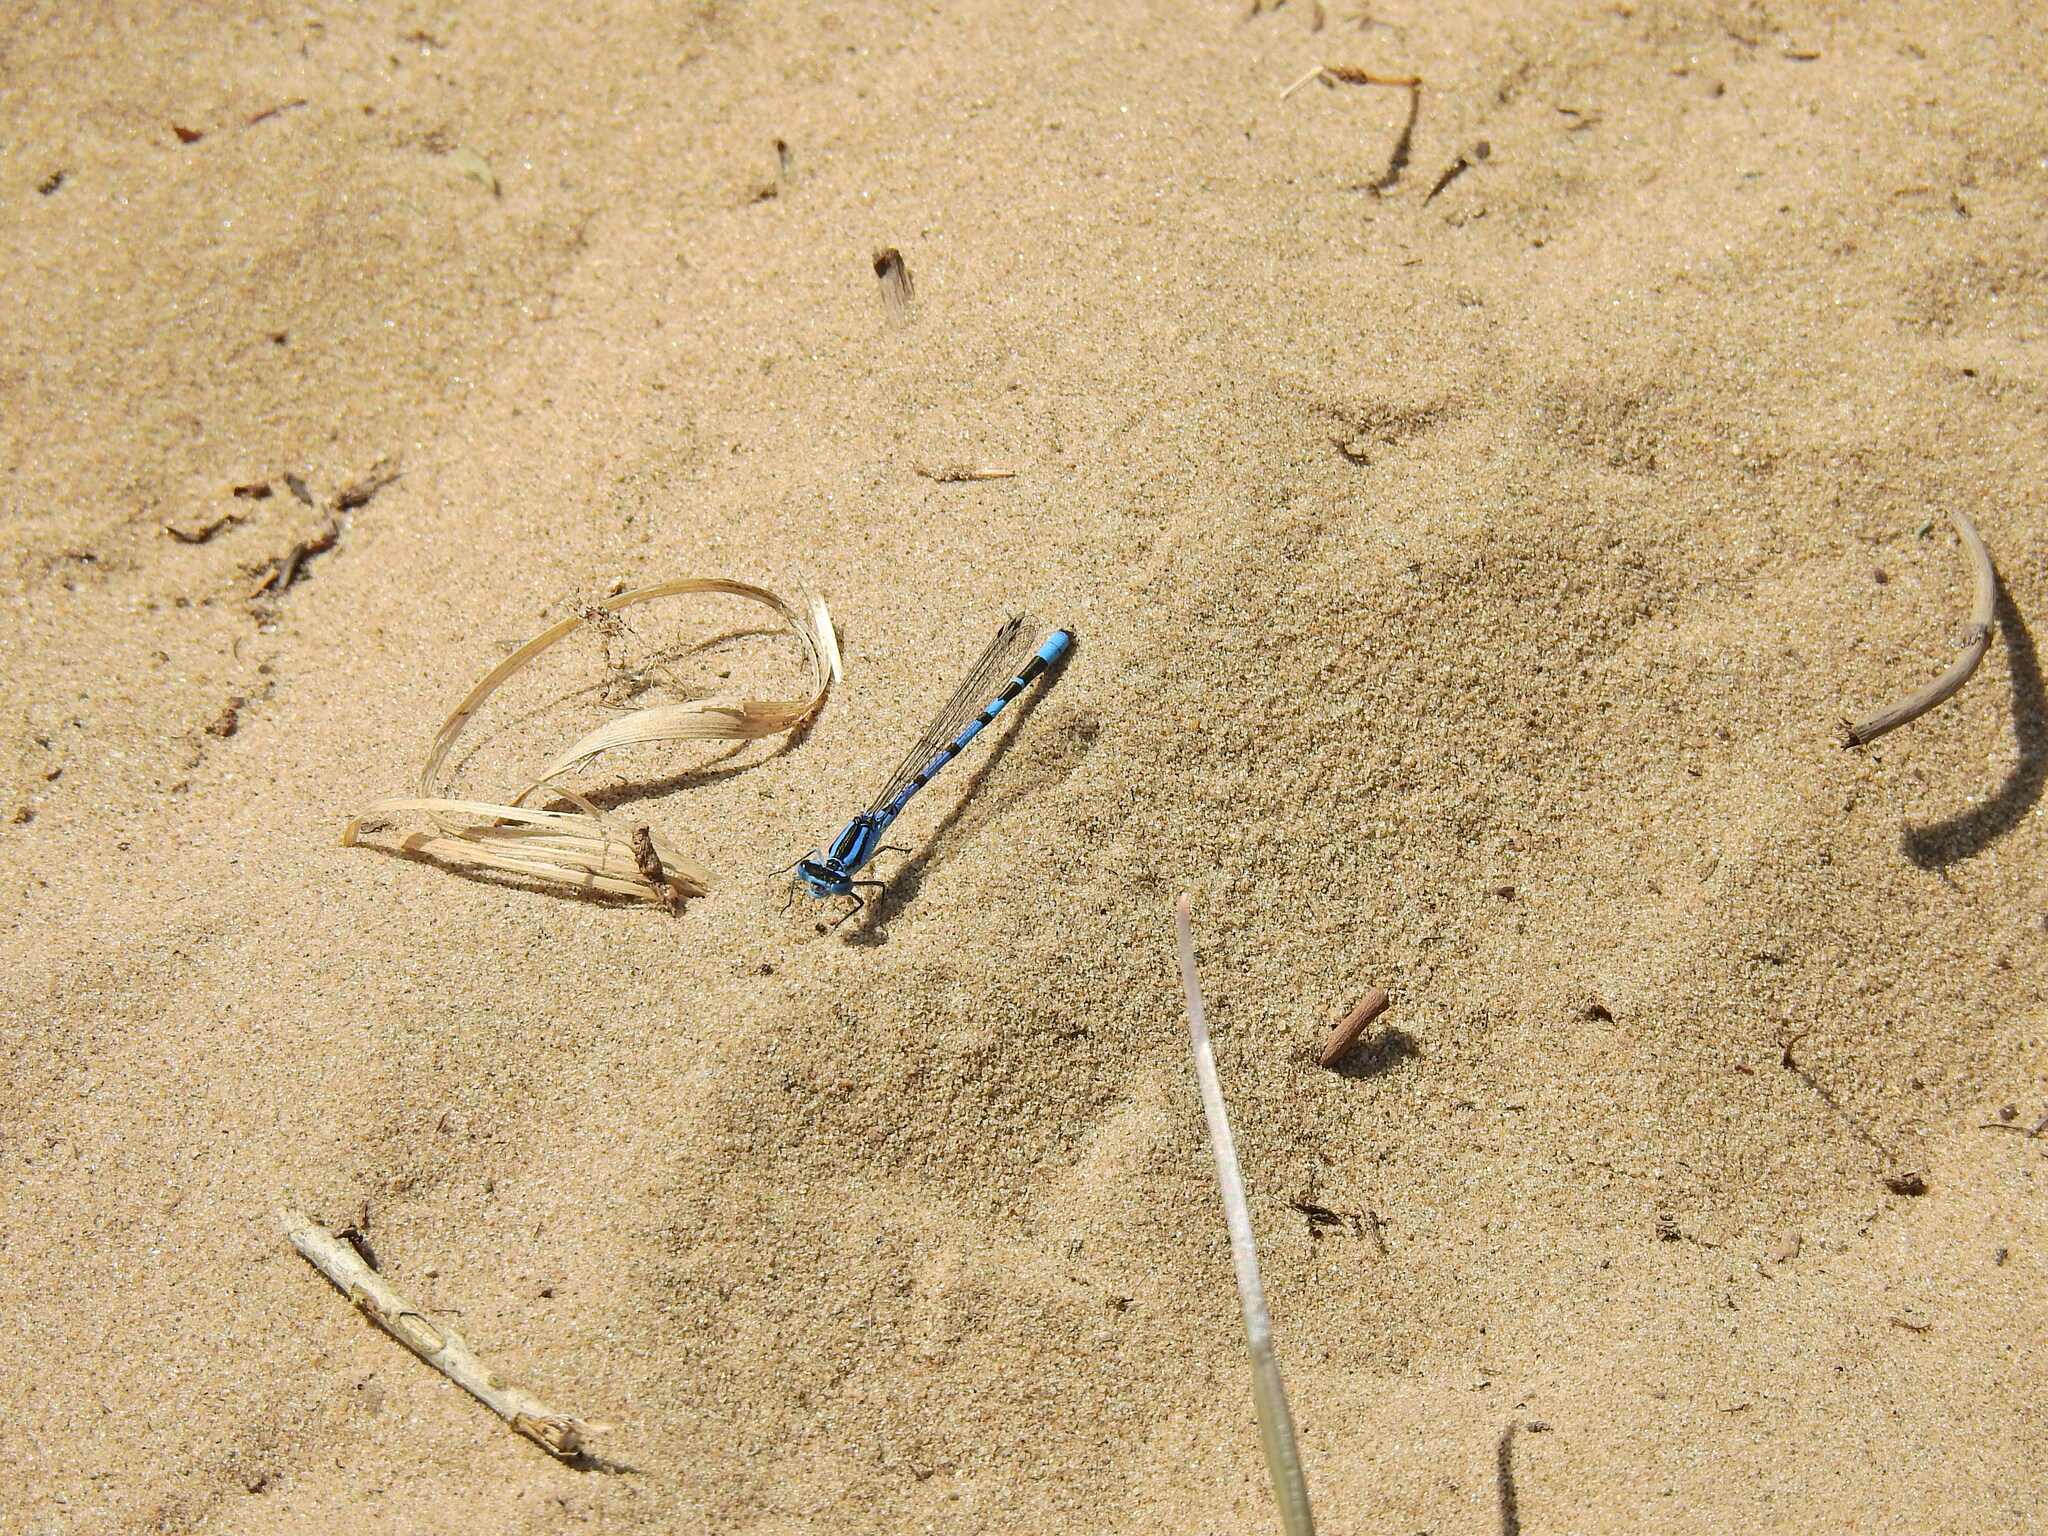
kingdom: Animalia
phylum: Arthropoda
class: Insecta
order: Odonata
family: Coenagrionidae
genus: Enallagma
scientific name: Enallagma cyathigerum
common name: Common blue damselfly
